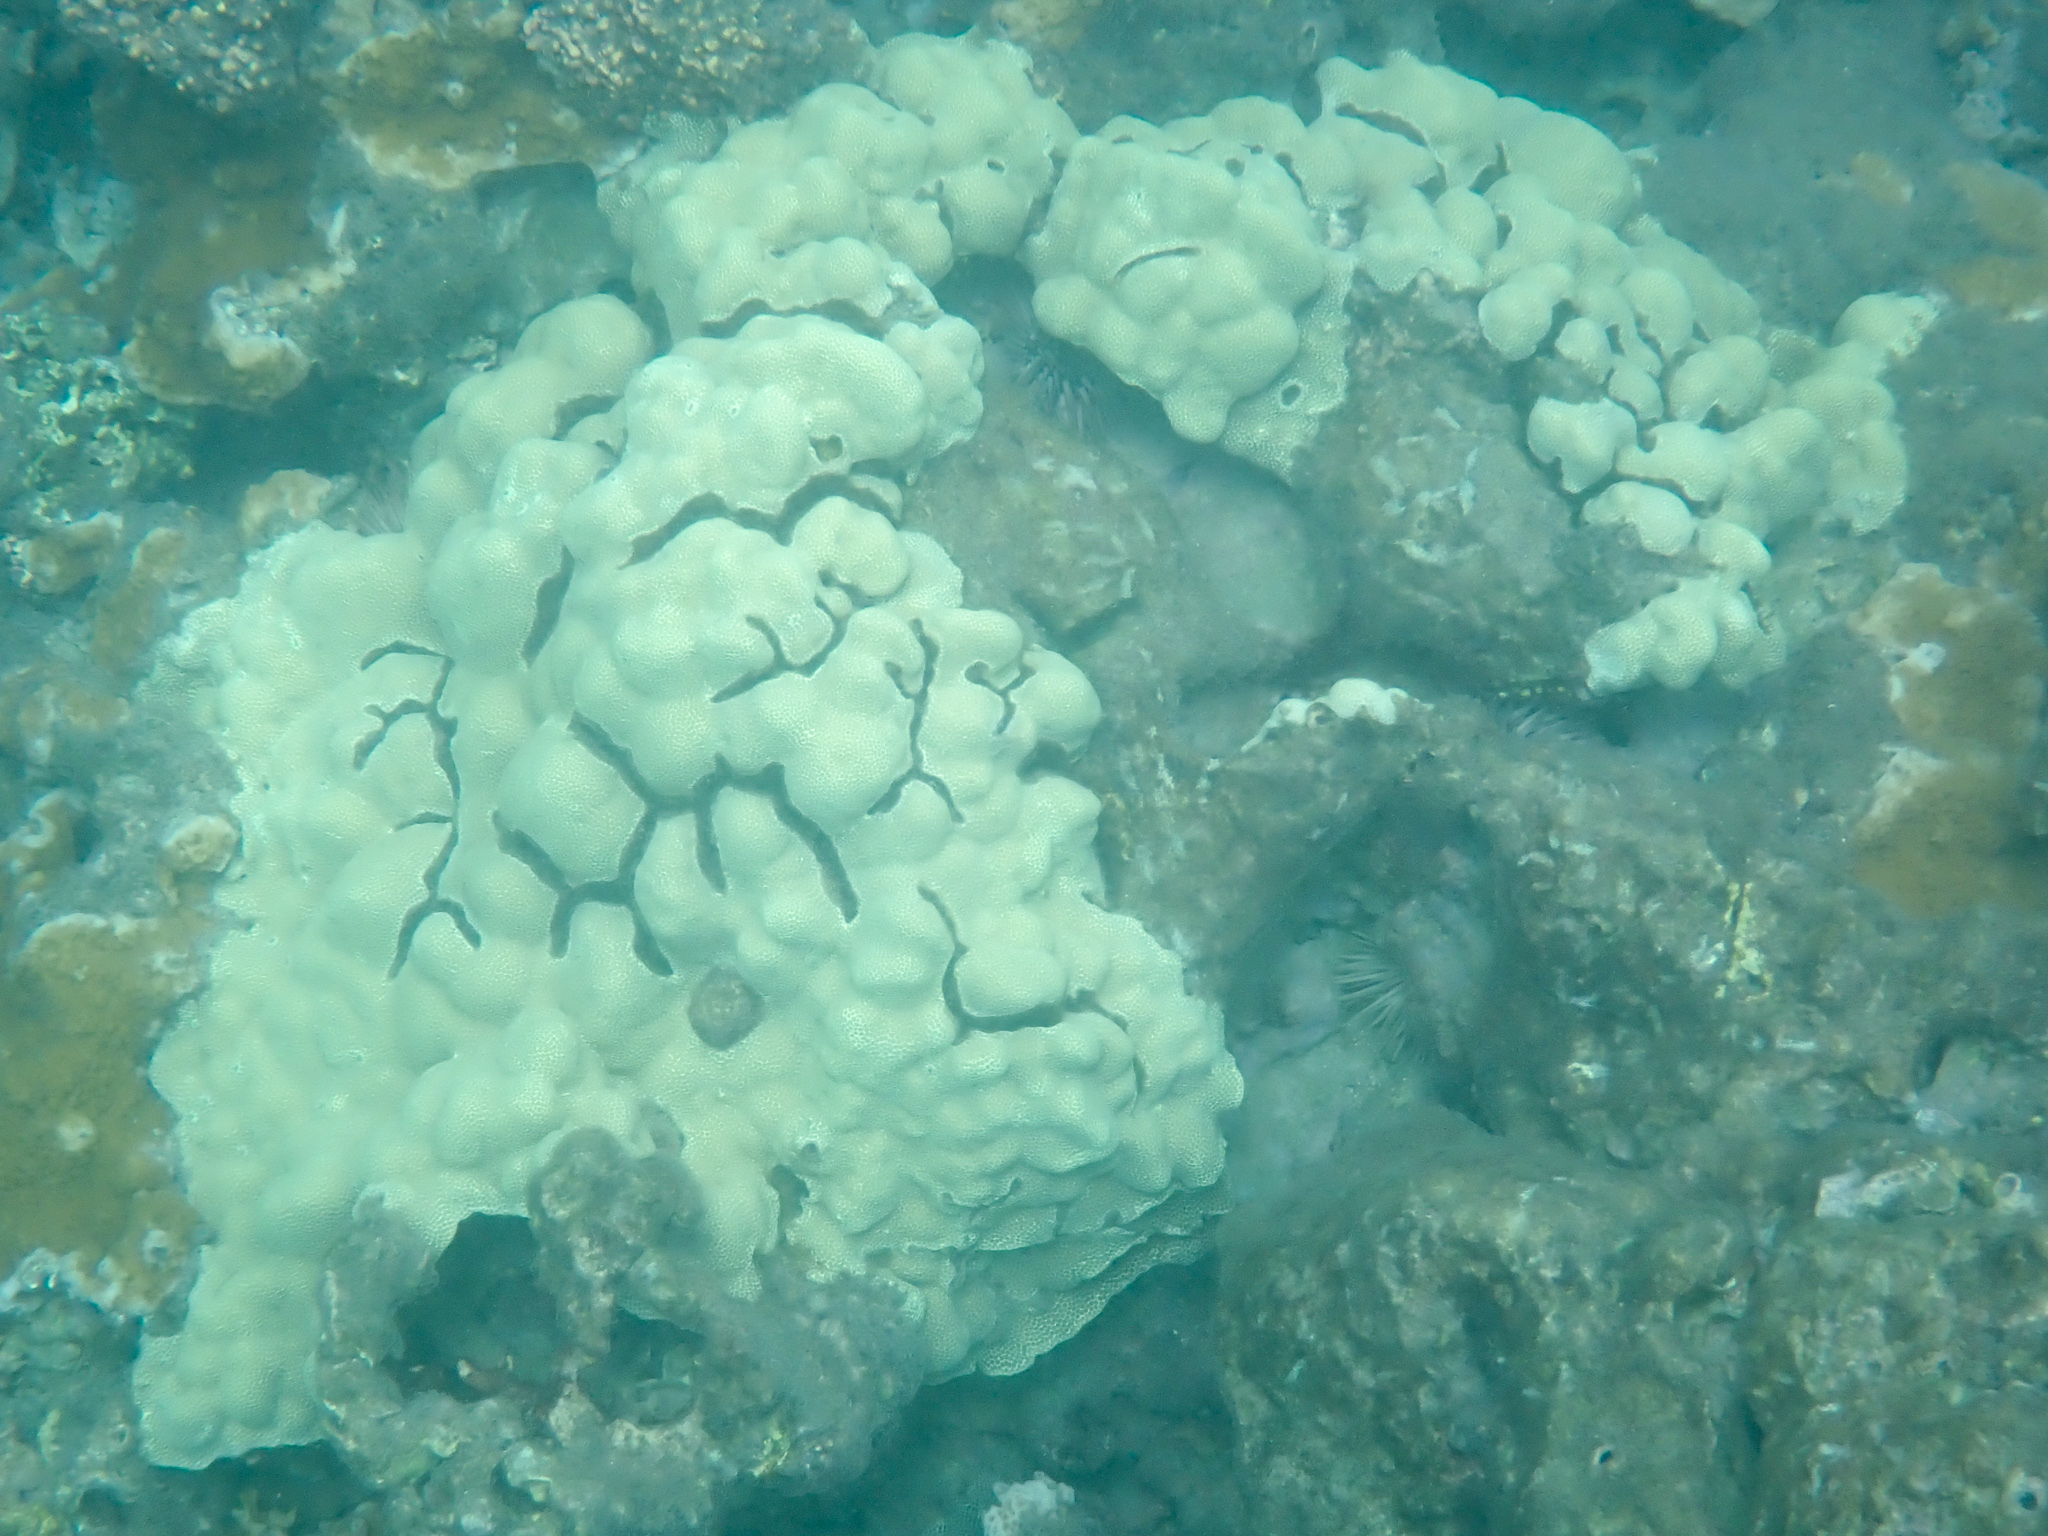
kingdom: Animalia
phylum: Cnidaria
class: Anthozoa
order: Scleractinia
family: Poritidae
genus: Porites
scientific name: Porites lobata
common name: Hump coral
